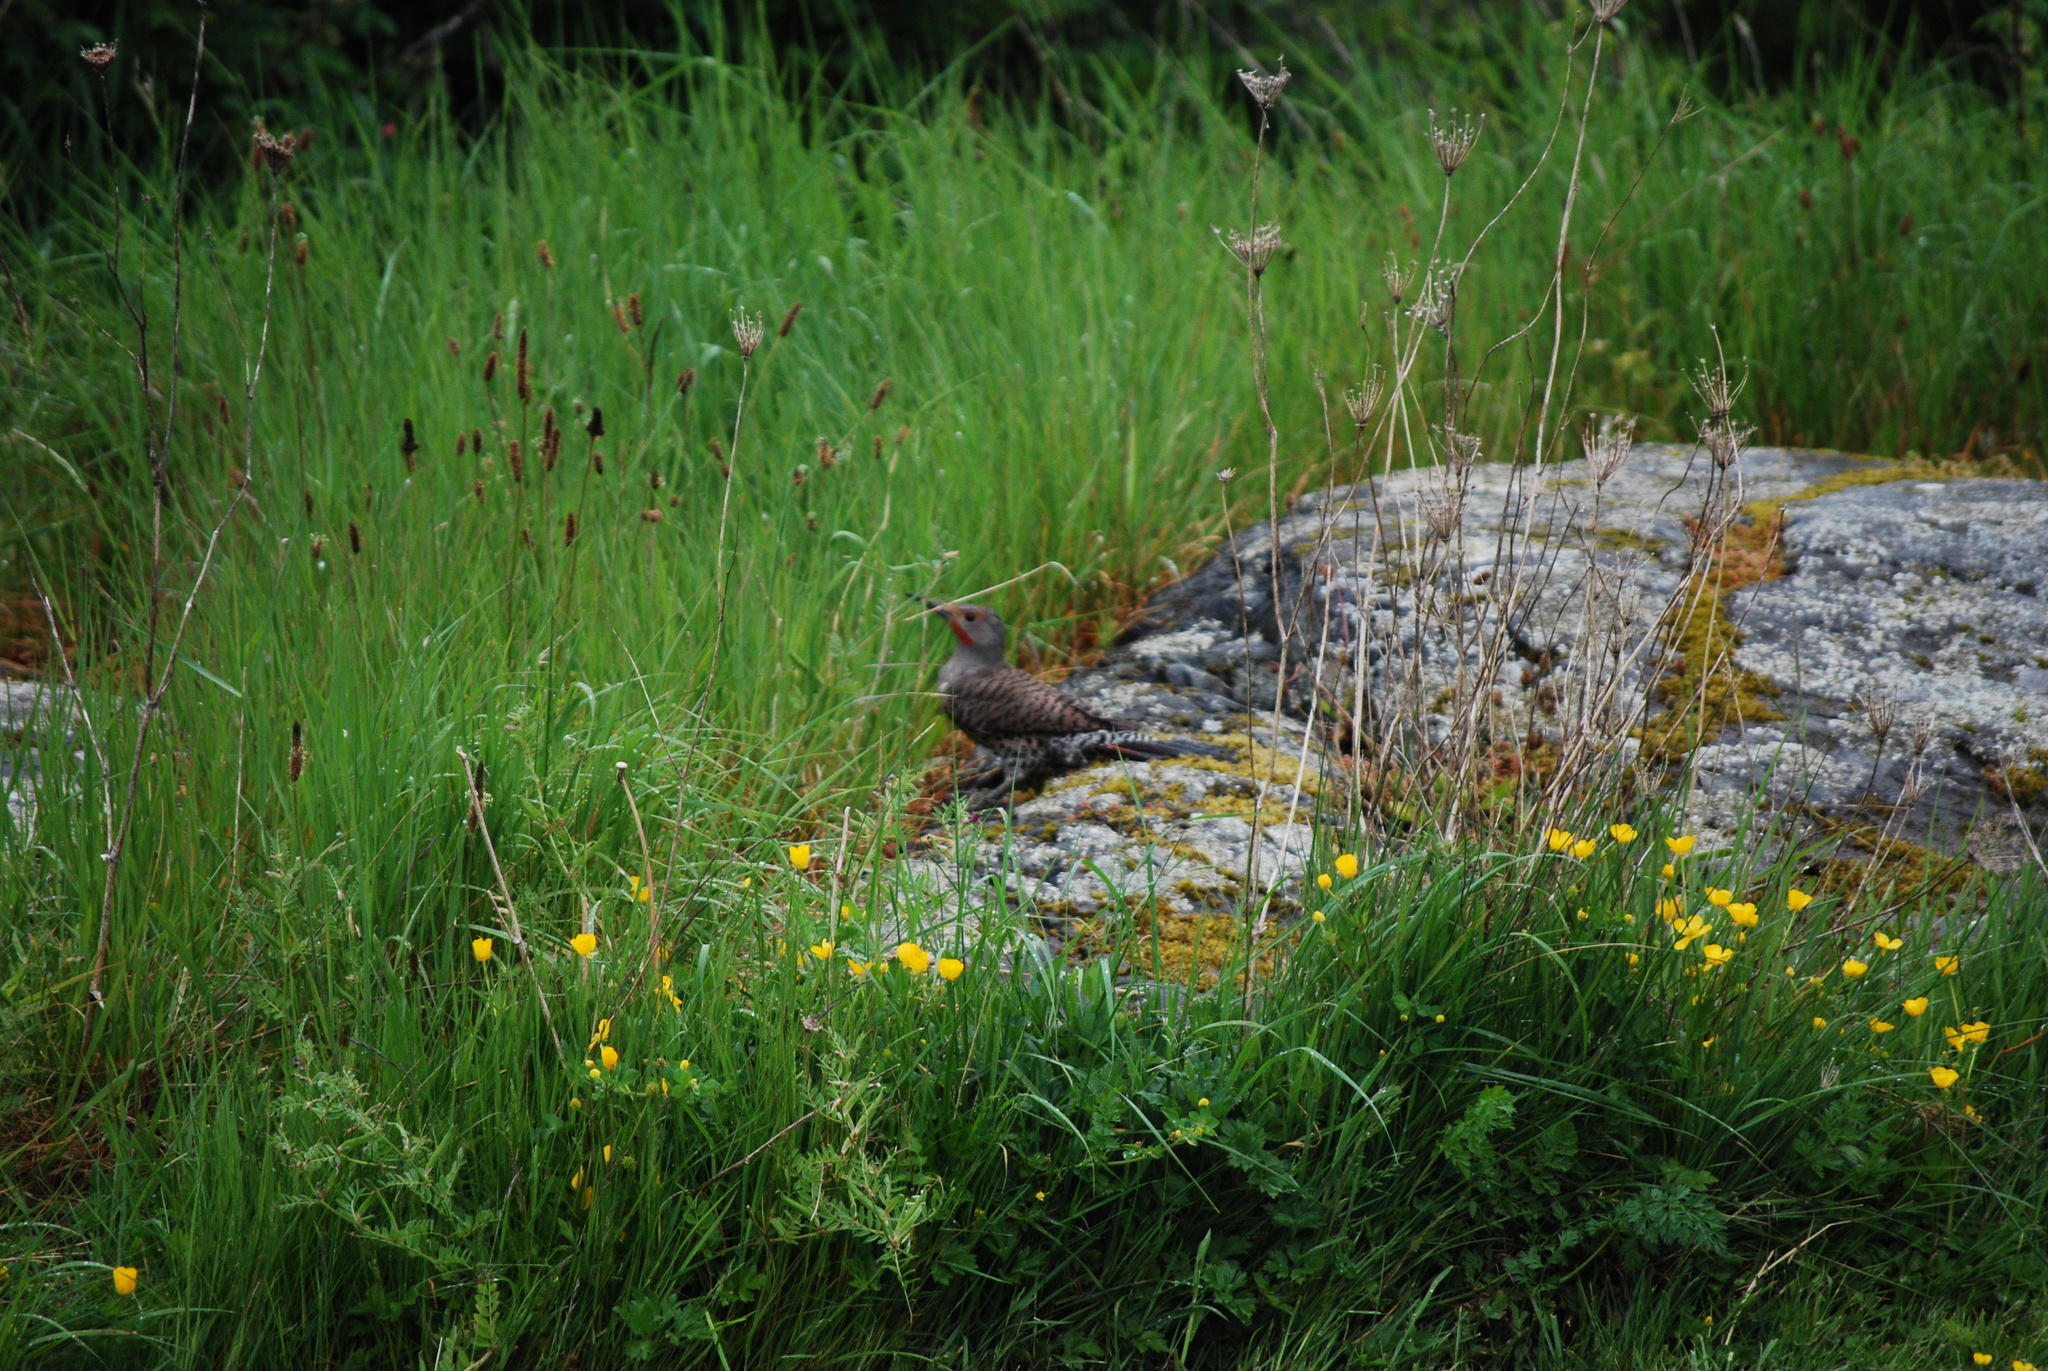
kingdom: Animalia
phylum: Chordata
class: Aves
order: Piciformes
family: Picidae
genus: Colaptes
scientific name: Colaptes auratus
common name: Northern flicker
